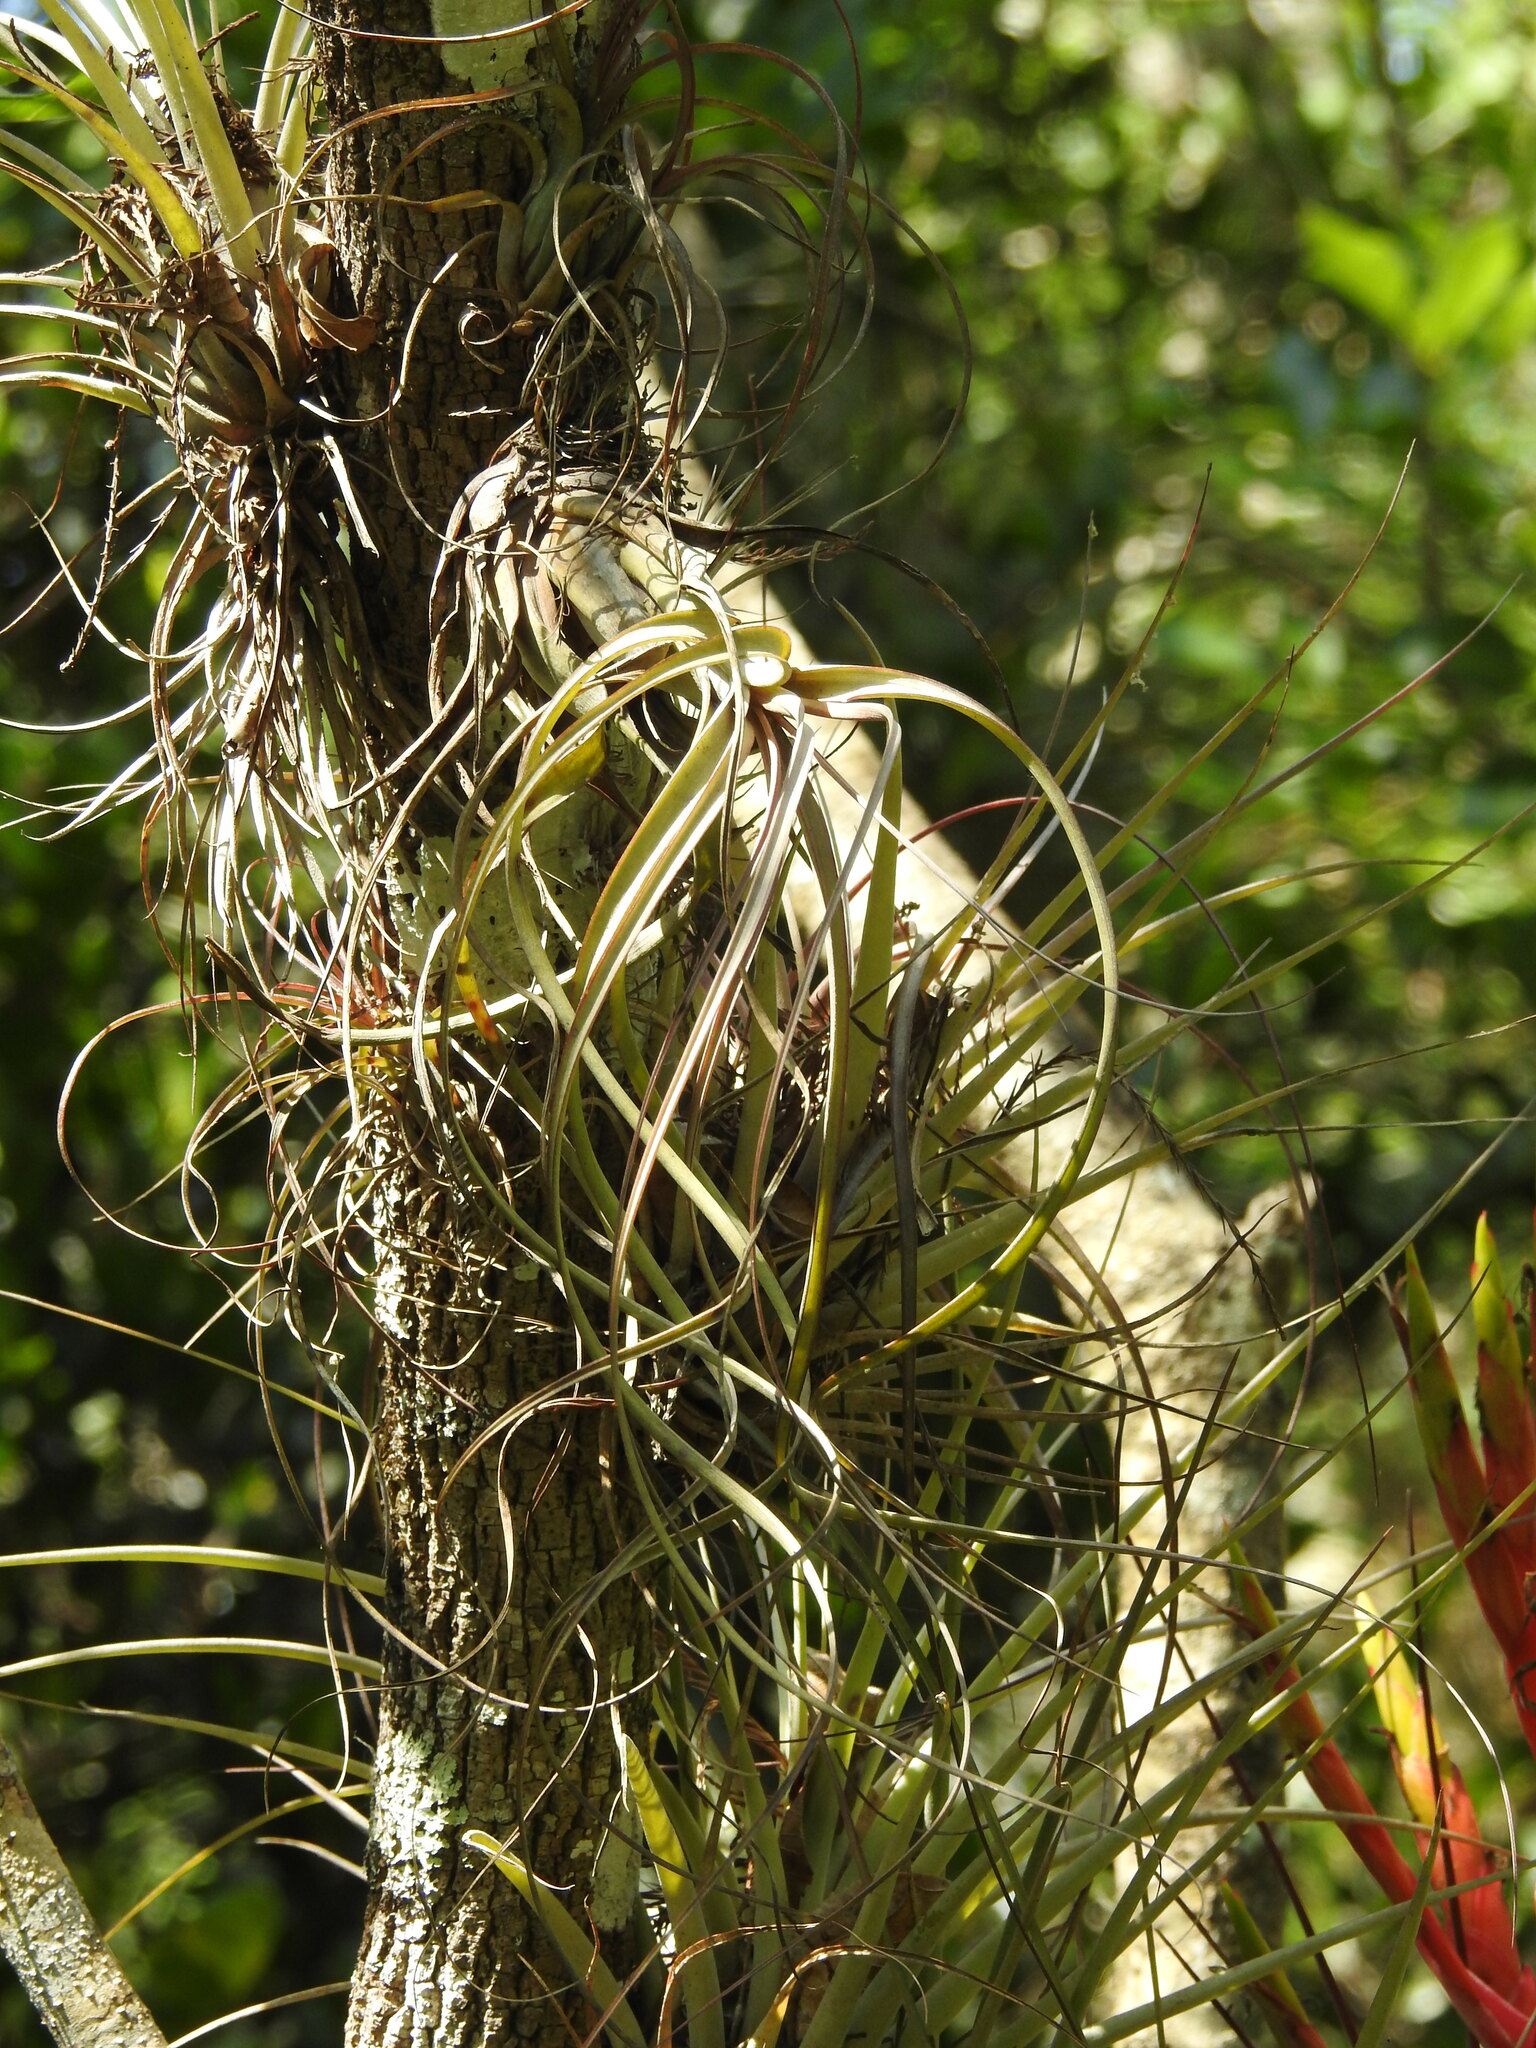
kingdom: Plantae
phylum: Tracheophyta
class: Liliopsida
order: Poales
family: Bromeliaceae
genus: Tillandsia
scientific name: Tillandsia balbisiana
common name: Northern needleleaf
